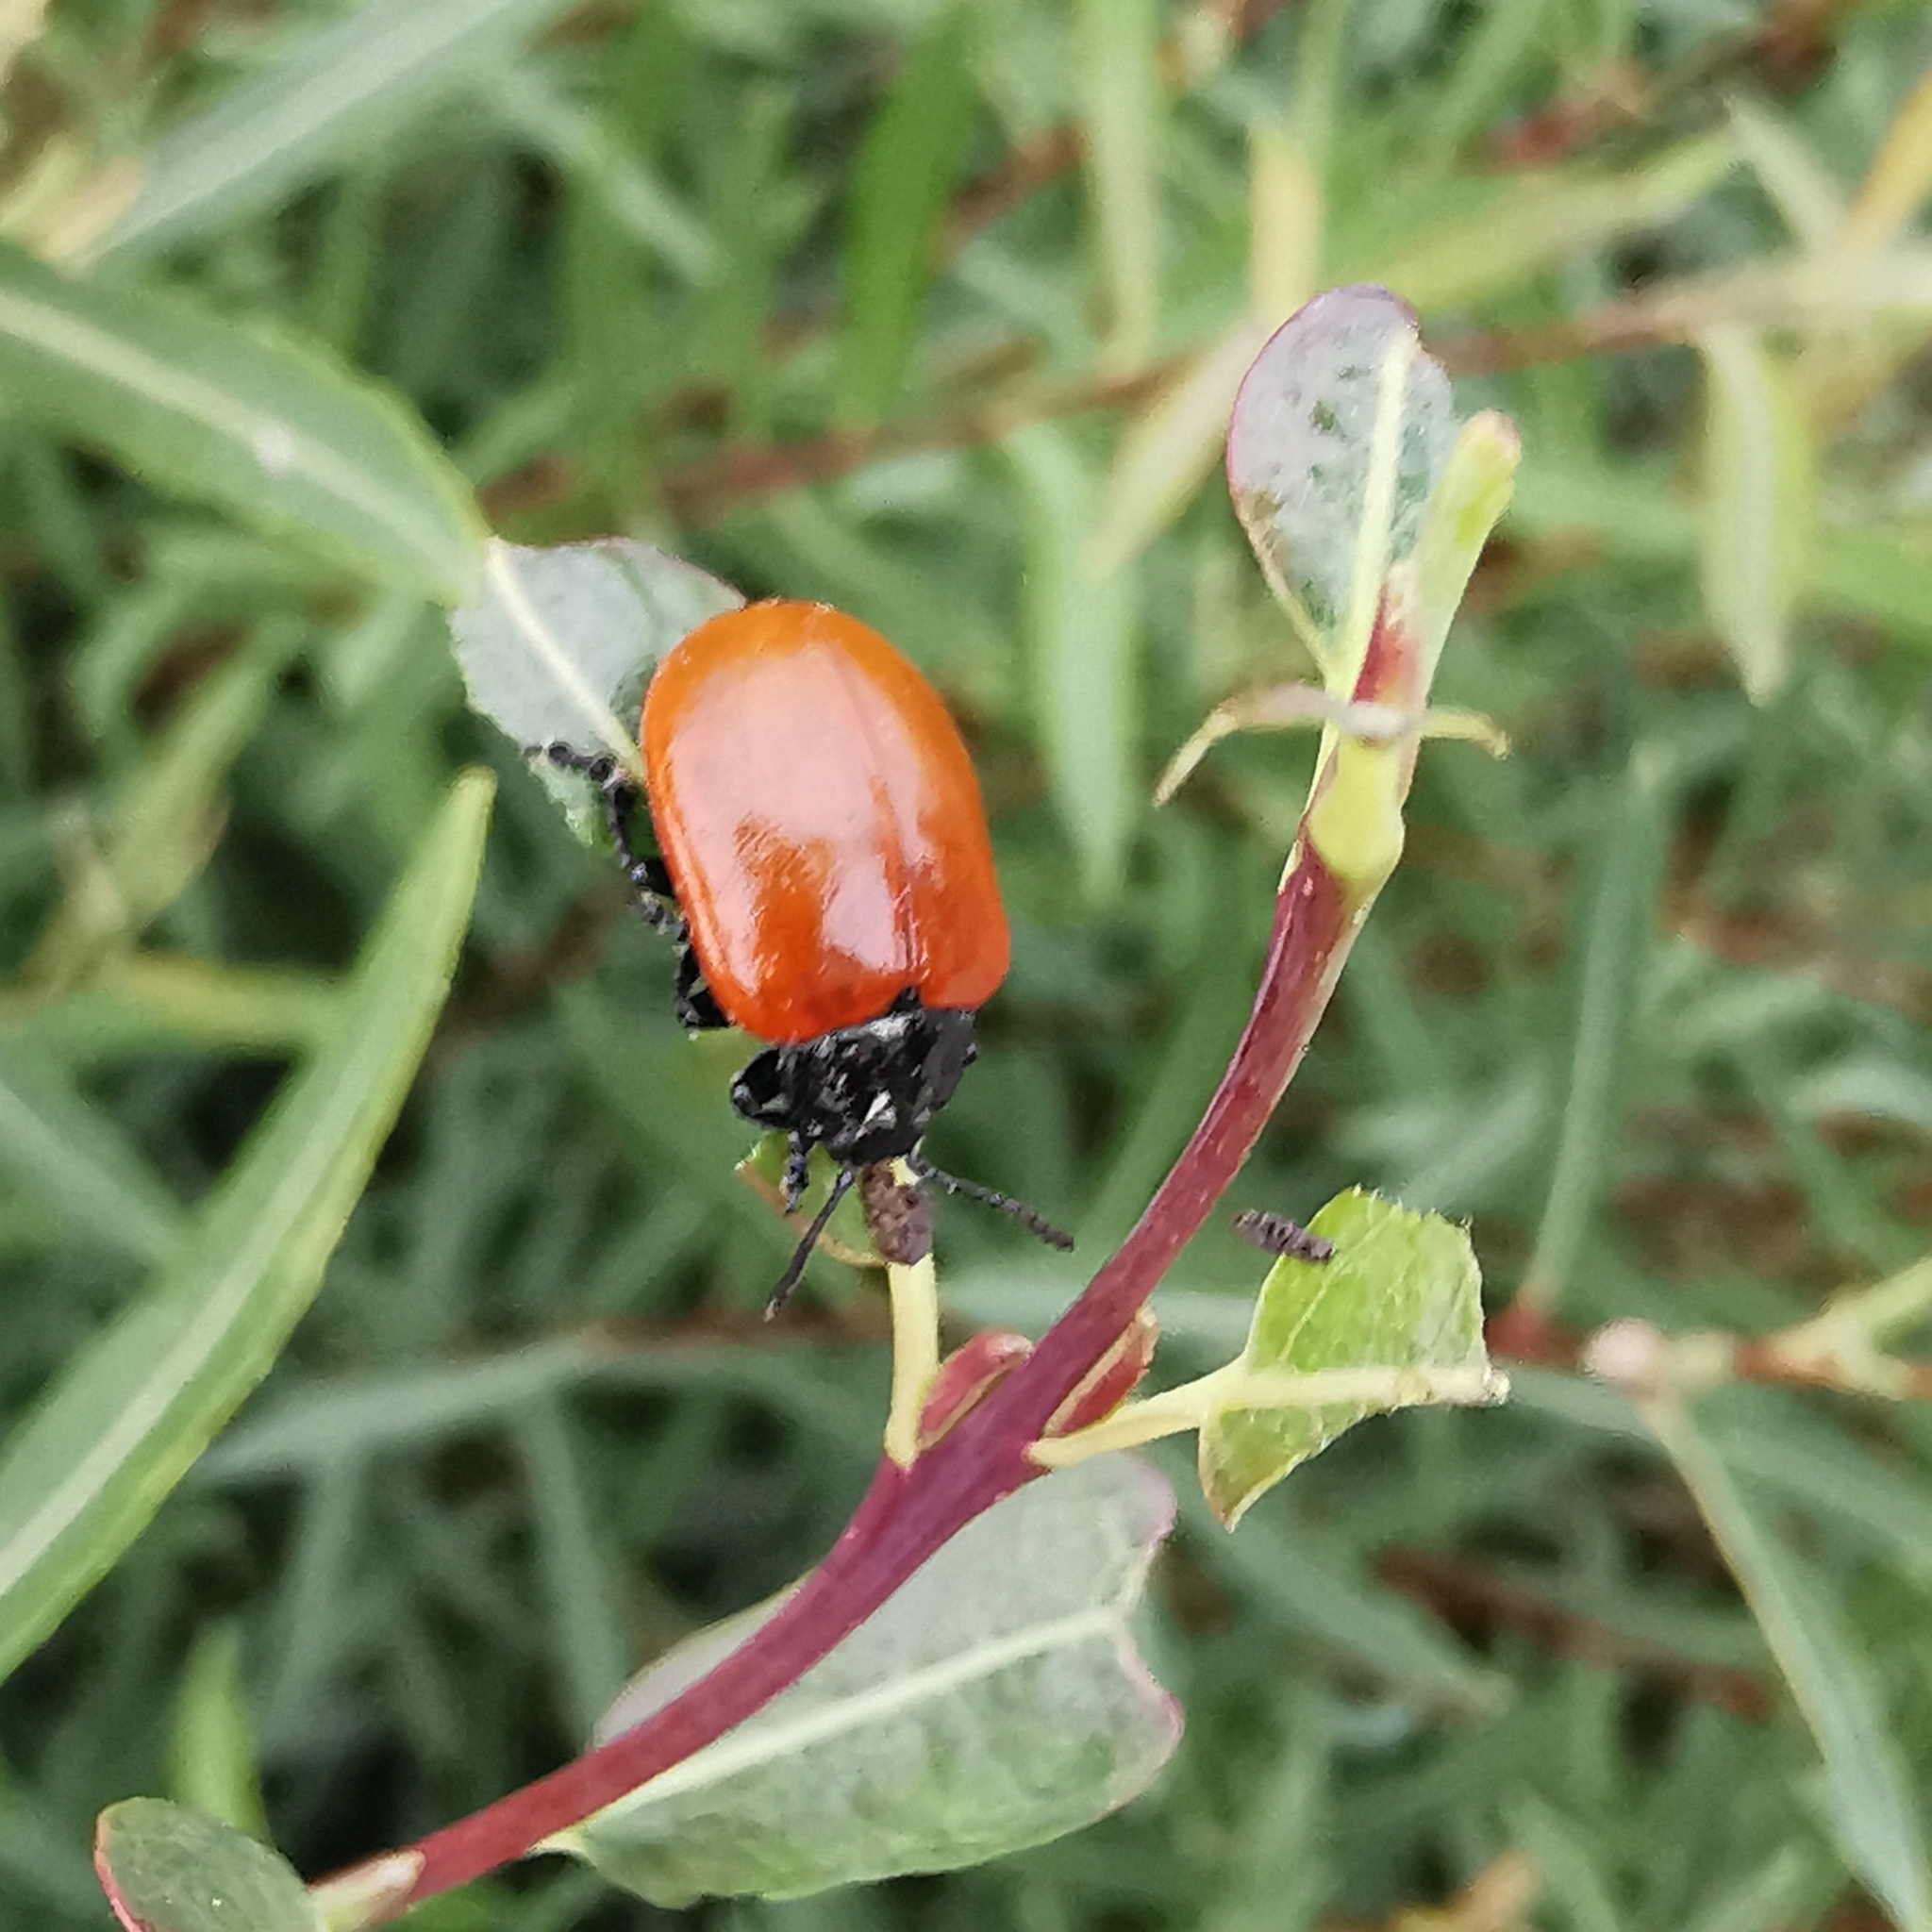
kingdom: Animalia
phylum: Arthropoda
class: Insecta
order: Coleoptera
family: Chrysomelidae
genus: Chrysomela
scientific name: Chrysomela populi
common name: Red poplar leaf beetle
